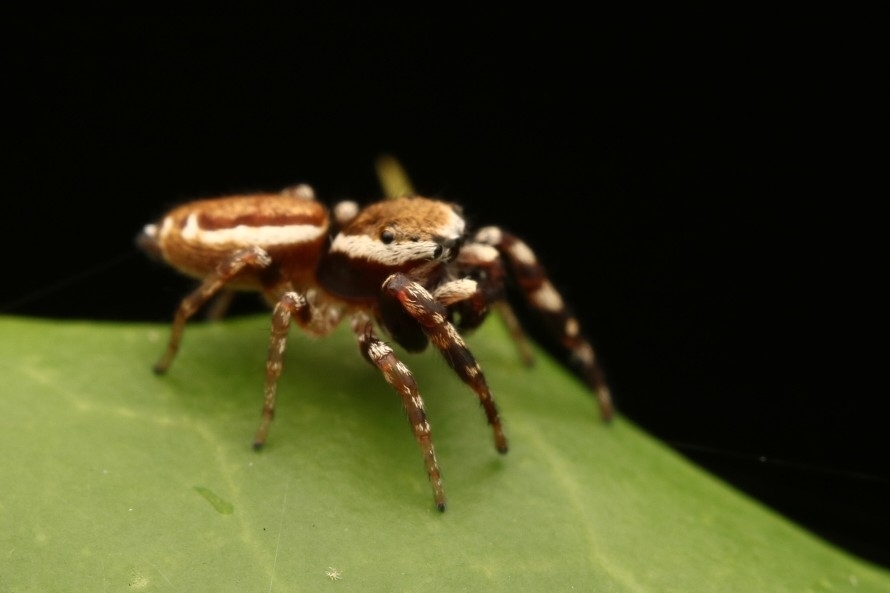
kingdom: Animalia
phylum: Arthropoda
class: Arachnida
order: Araneae
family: Salticidae
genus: Pelegrina
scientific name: Pelegrina proterva
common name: Common white-cheeked jumping spider
